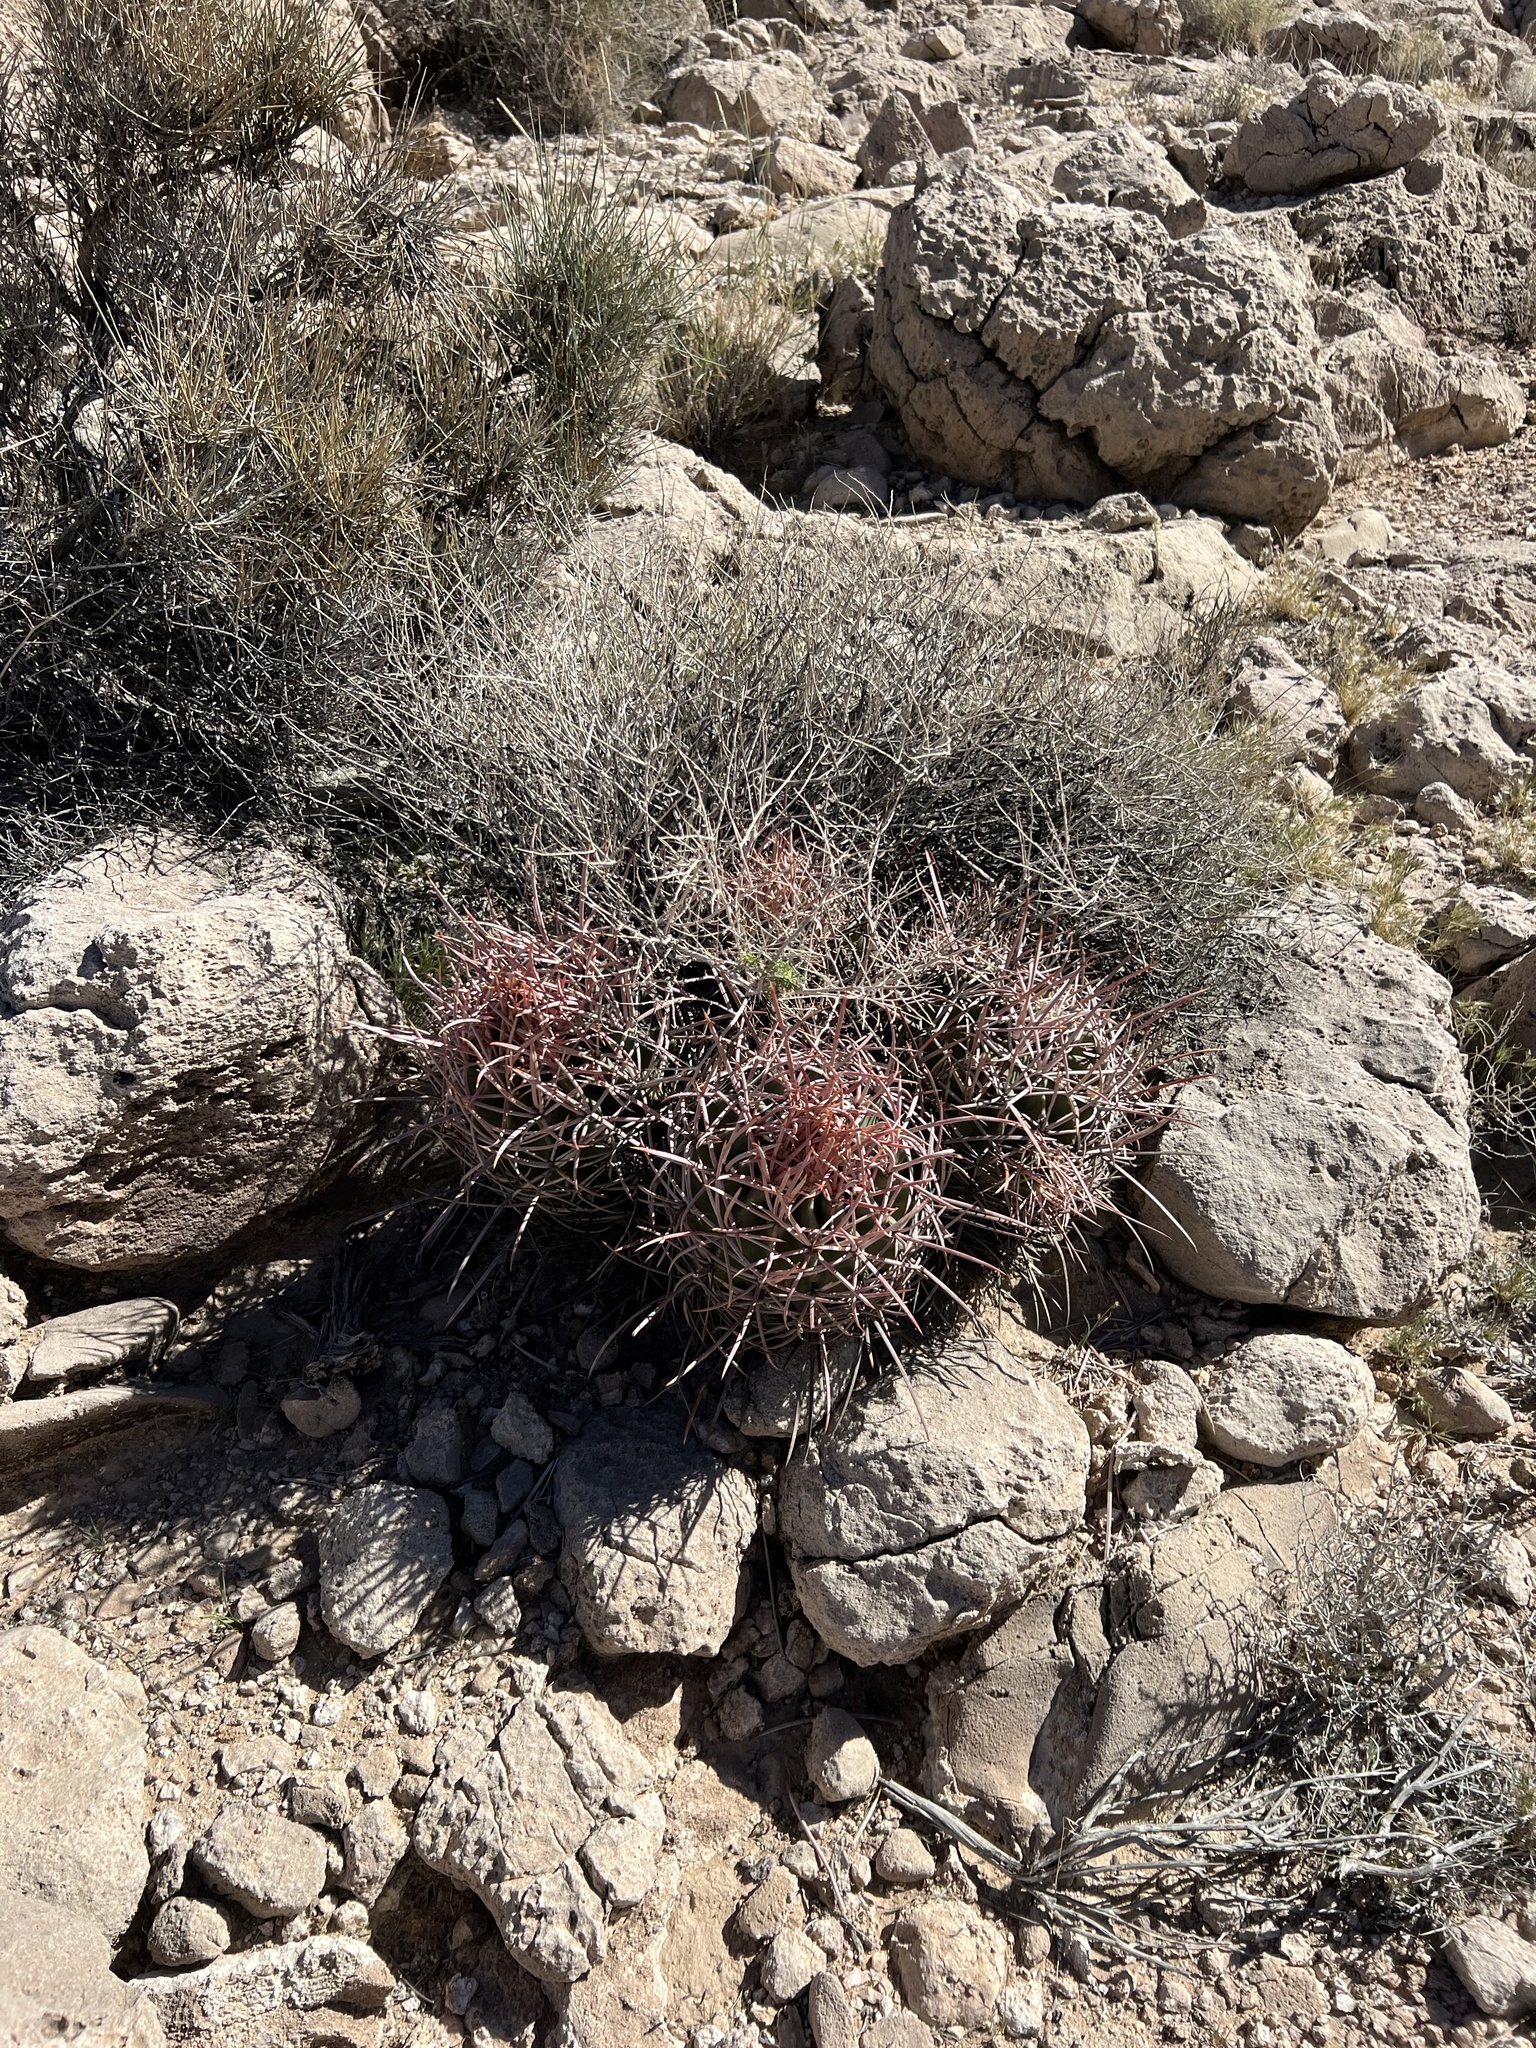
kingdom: Plantae
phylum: Tracheophyta
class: Magnoliopsida
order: Caryophyllales
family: Cactaceae
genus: Echinocactus
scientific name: Echinocactus polycephalus
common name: Cottontop cactus
